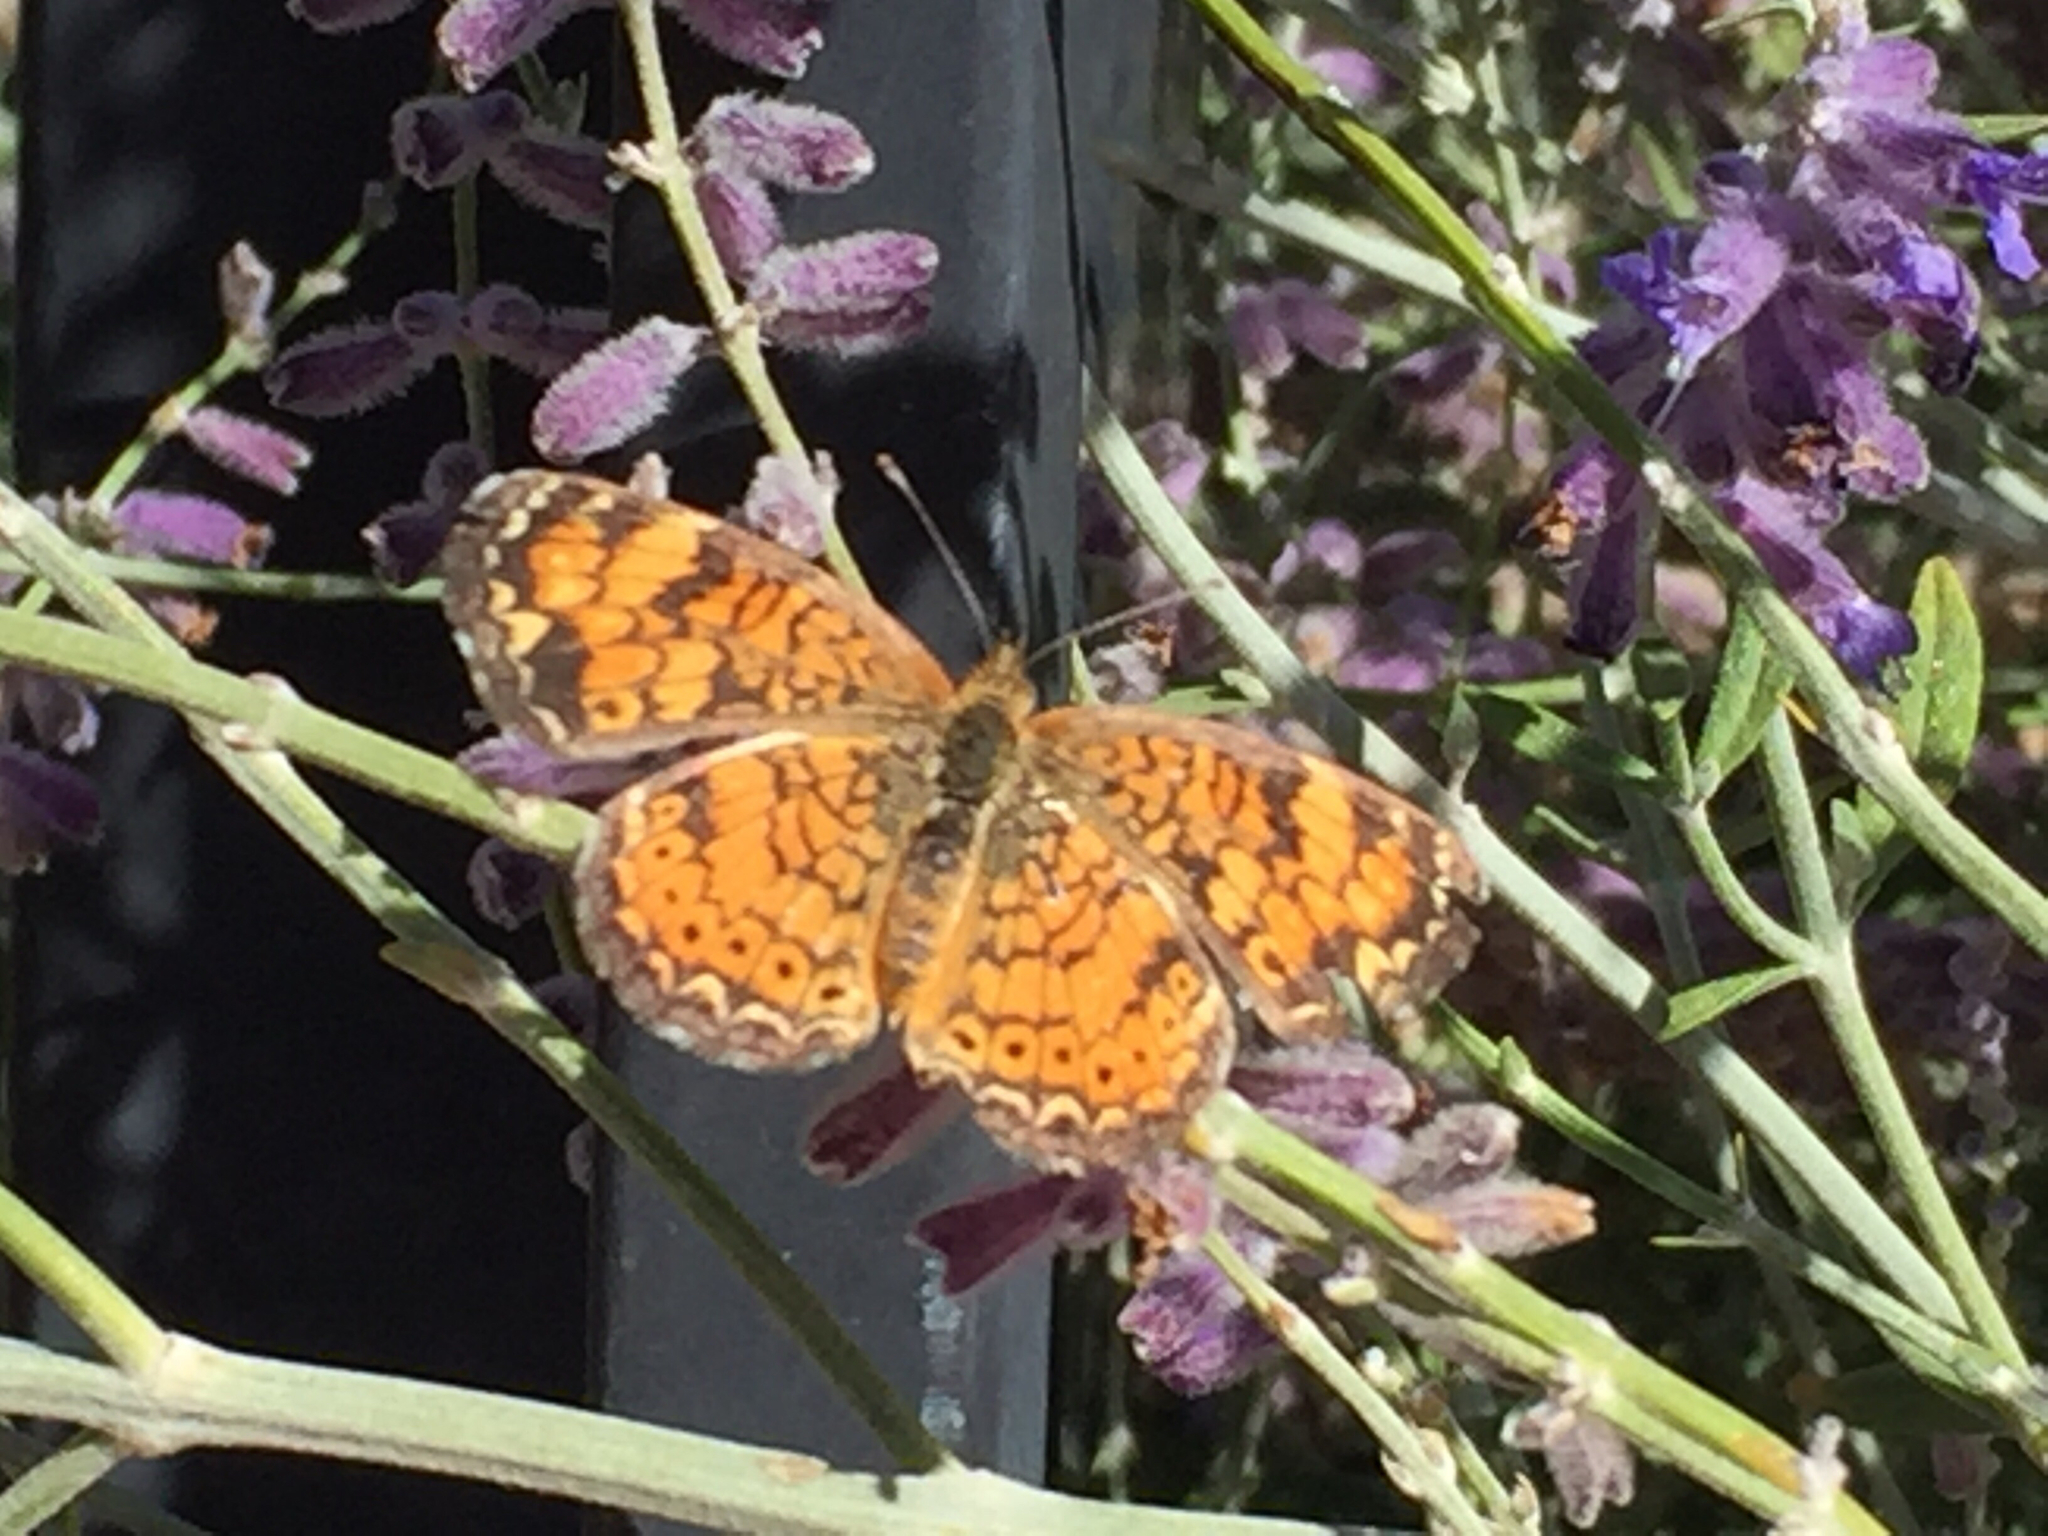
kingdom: Animalia
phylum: Arthropoda
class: Insecta
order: Lepidoptera
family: Nymphalidae
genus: Phyciodes
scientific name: Phyciodes tharos
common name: Pearl crescent
